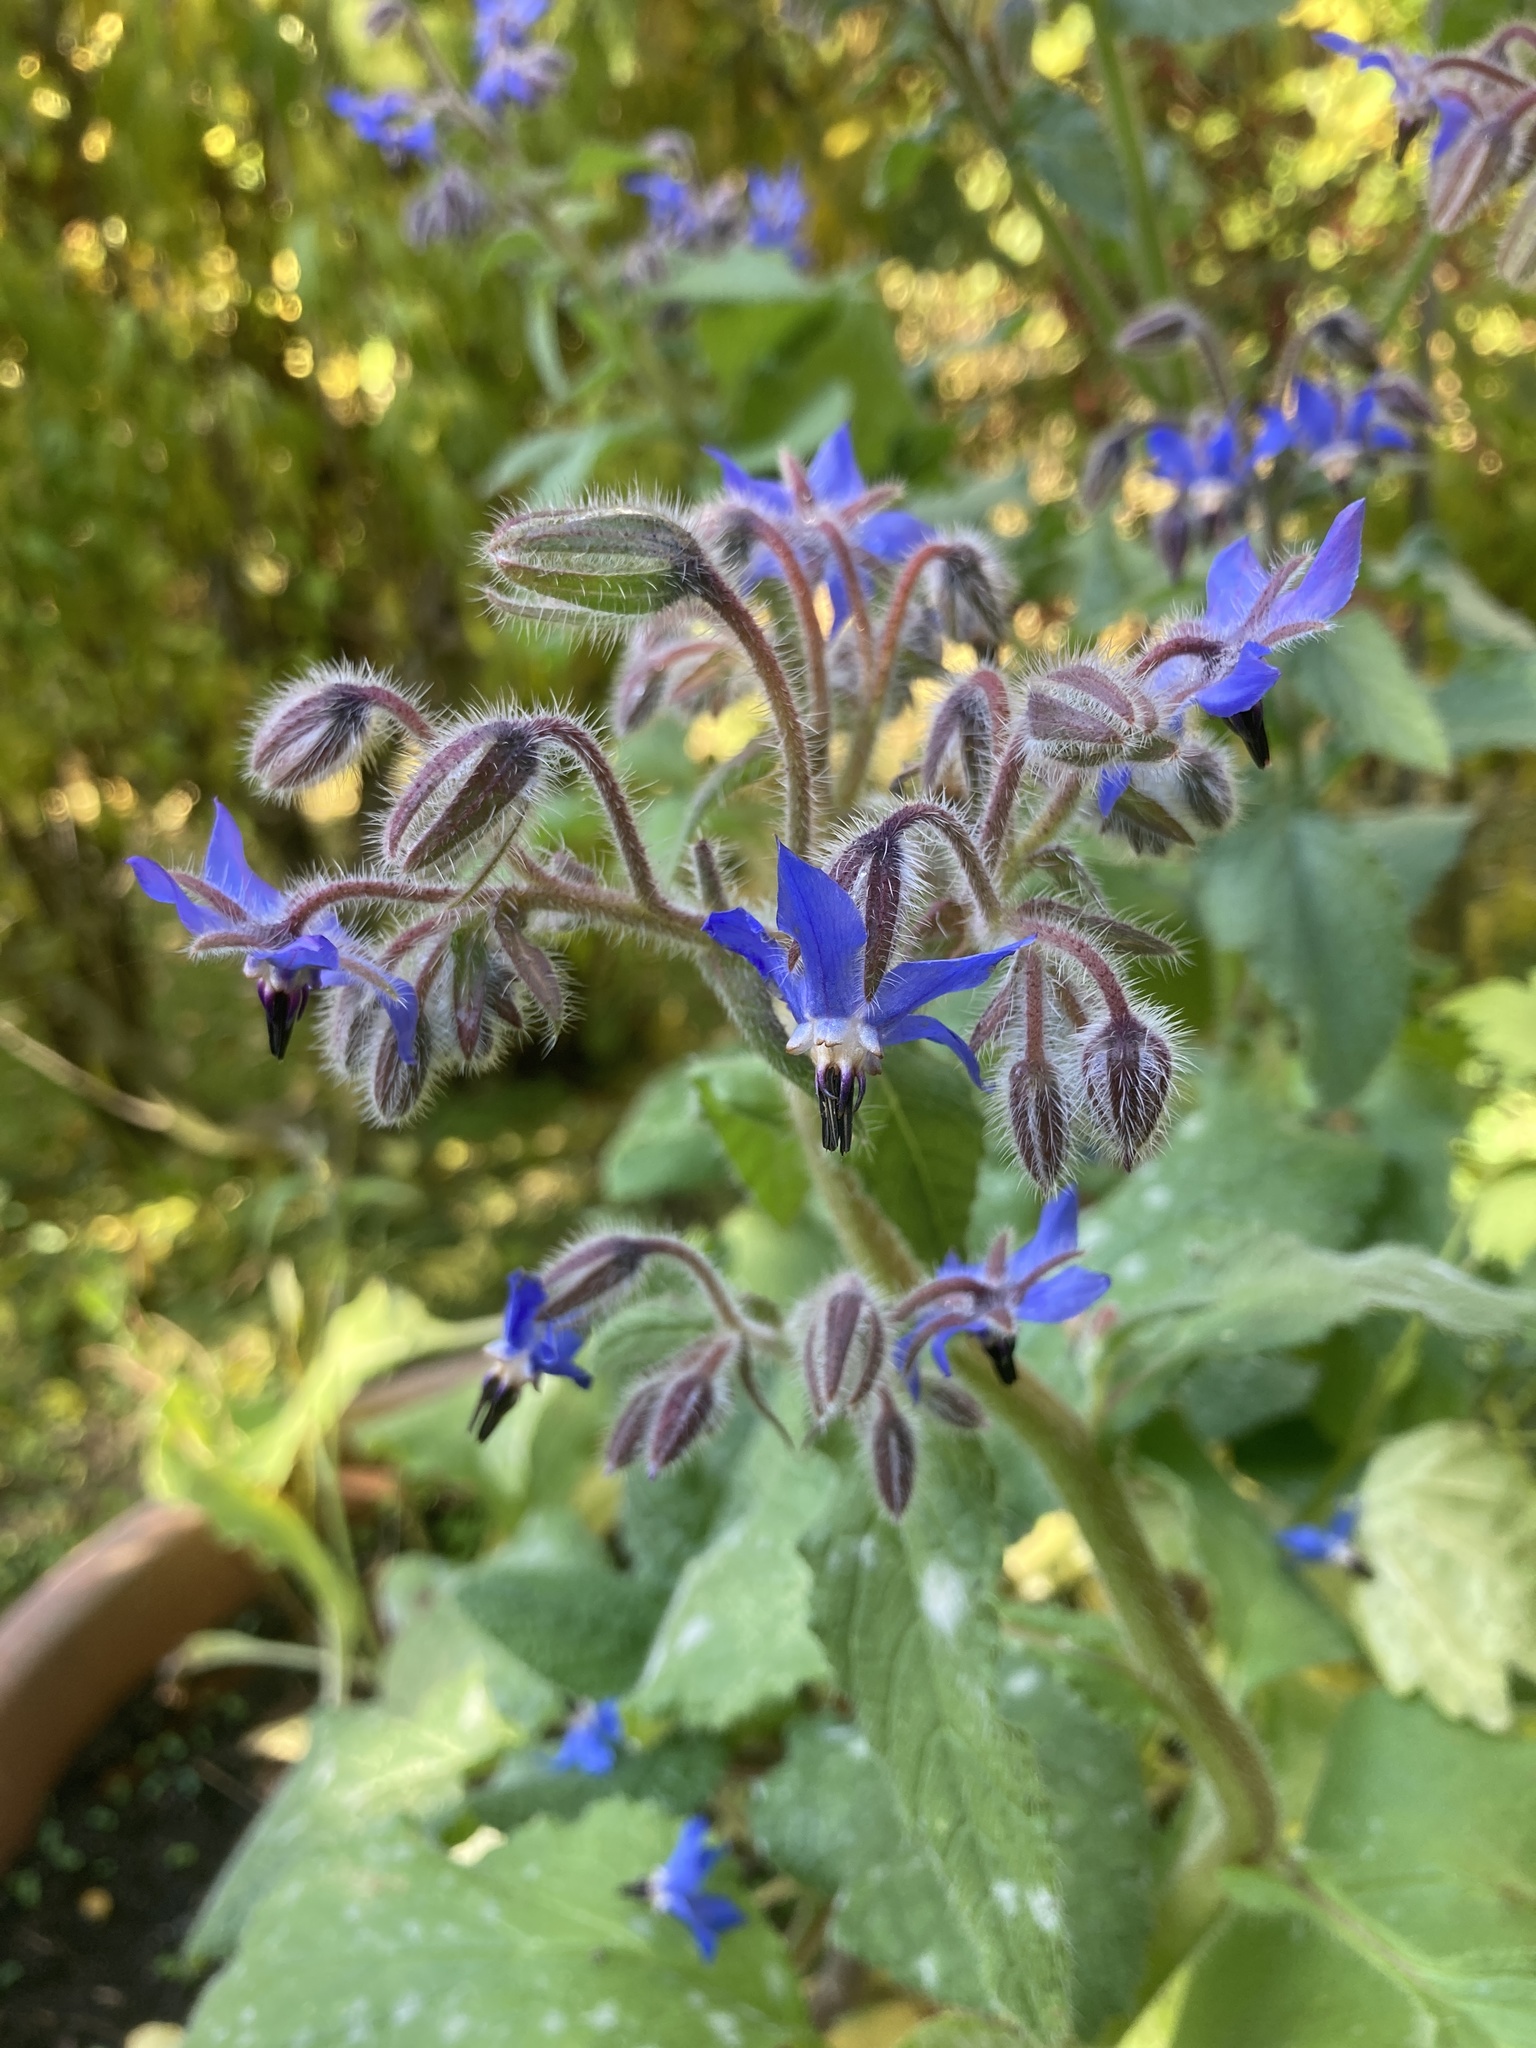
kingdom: Plantae
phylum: Tracheophyta
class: Magnoliopsida
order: Boraginales
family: Boraginaceae
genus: Borago
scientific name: Borago officinalis
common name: Borage
